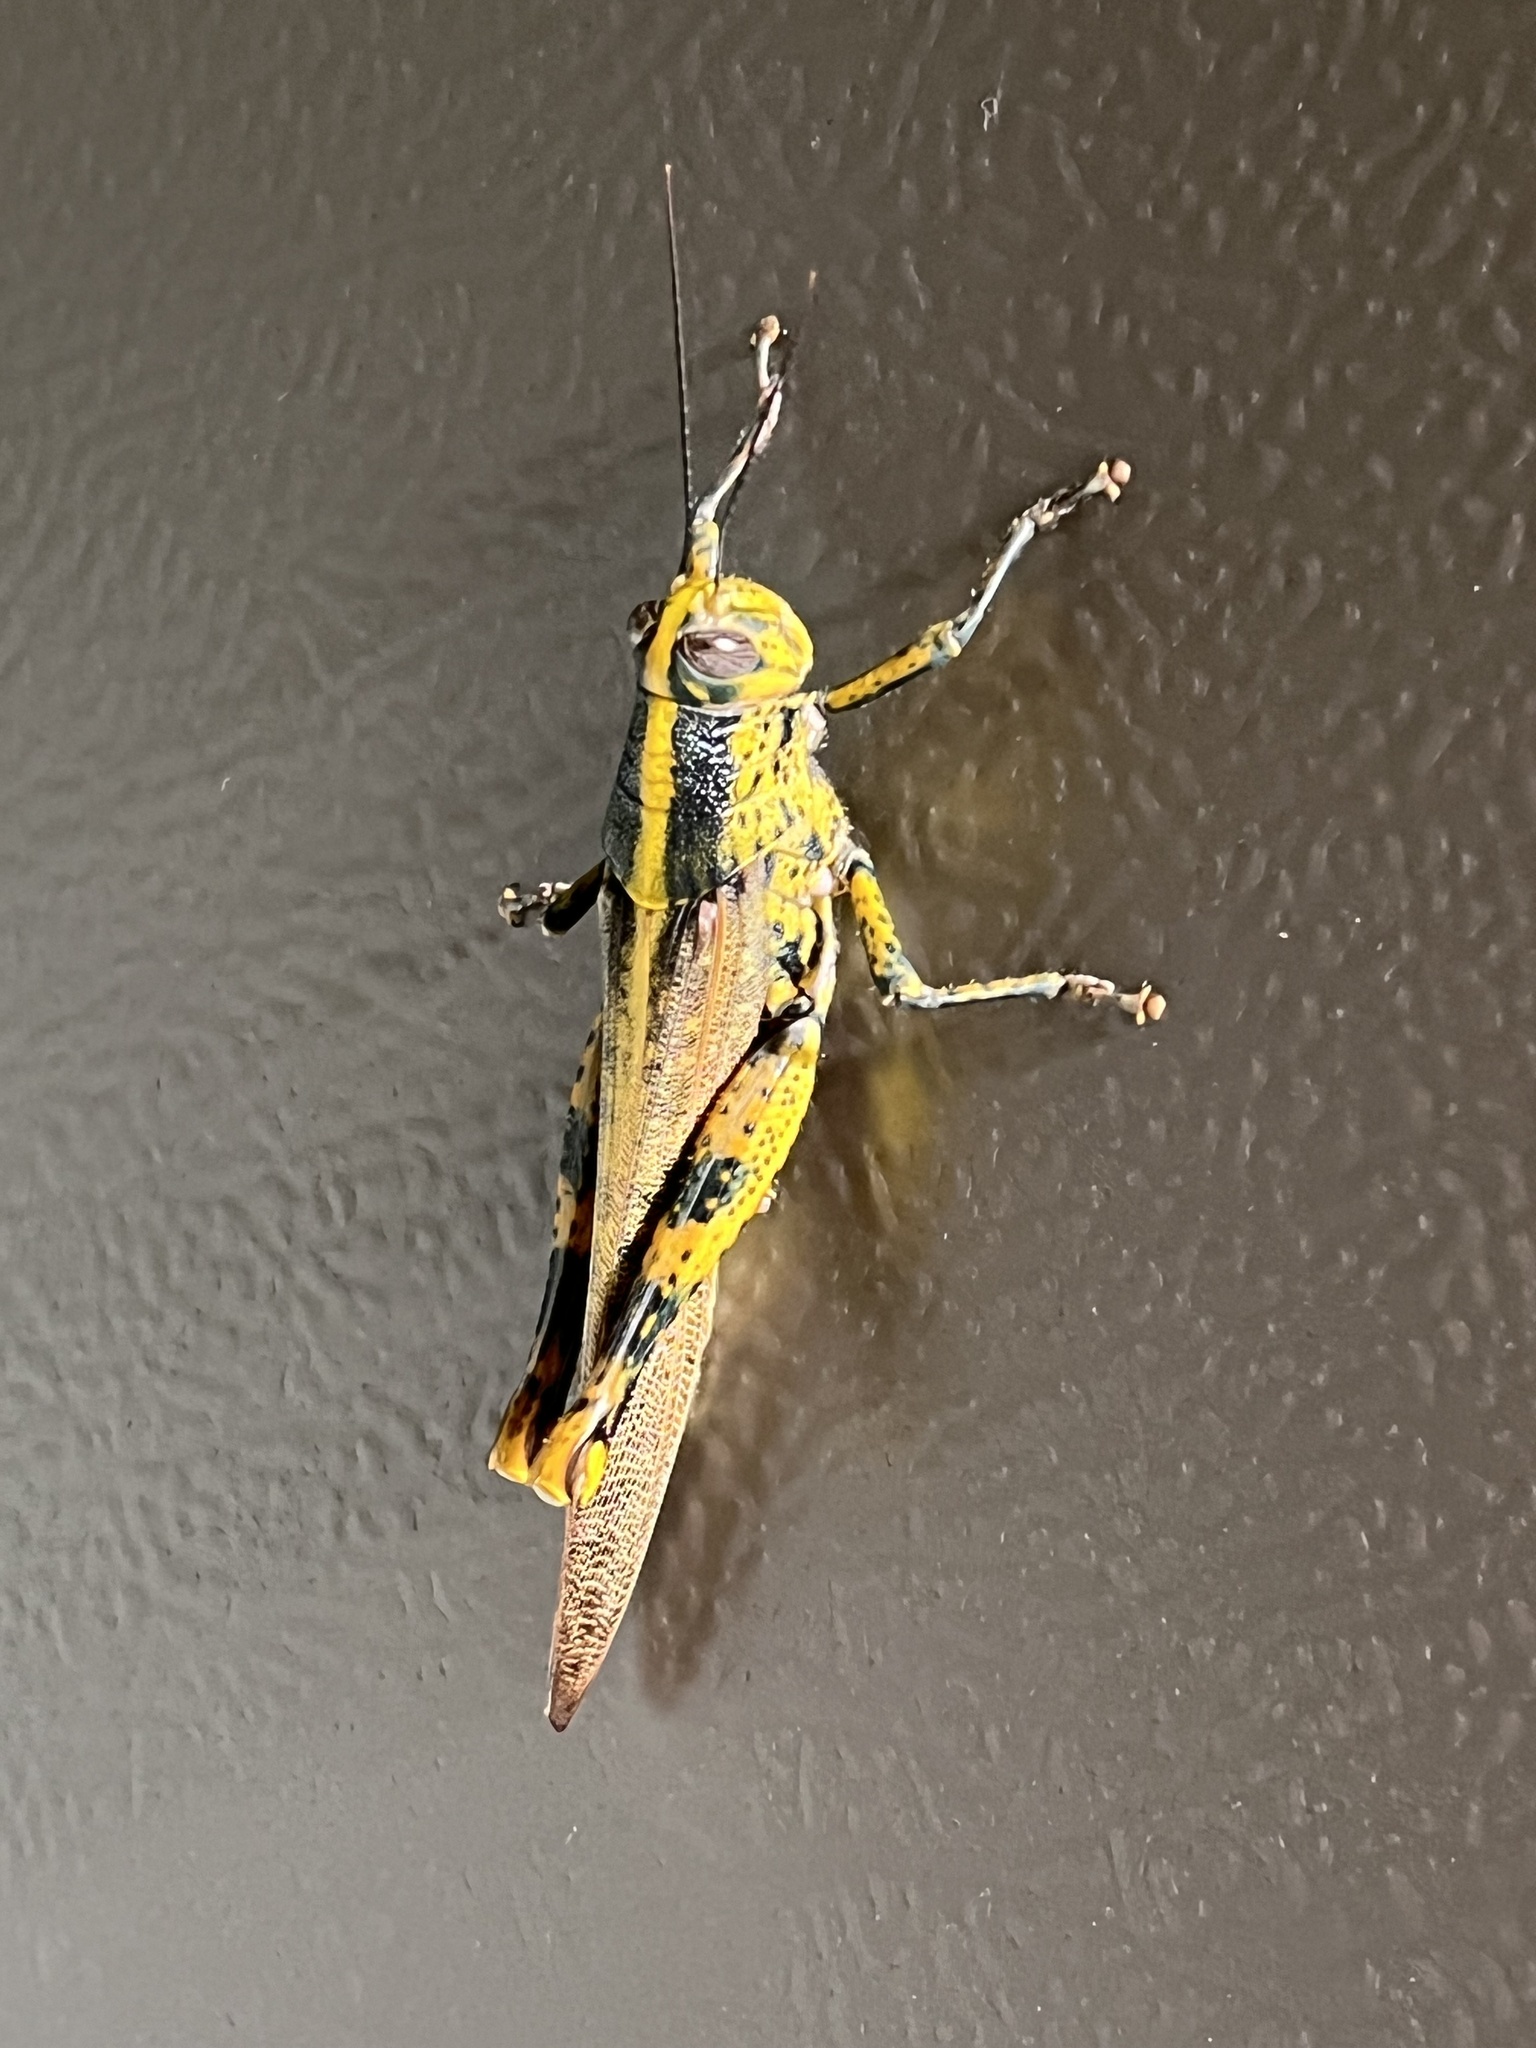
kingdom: Animalia
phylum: Arthropoda
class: Insecta
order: Orthoptera
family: Acrididae
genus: Valanga
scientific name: Valanga nigricornis
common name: Javanese bird grasshopper
